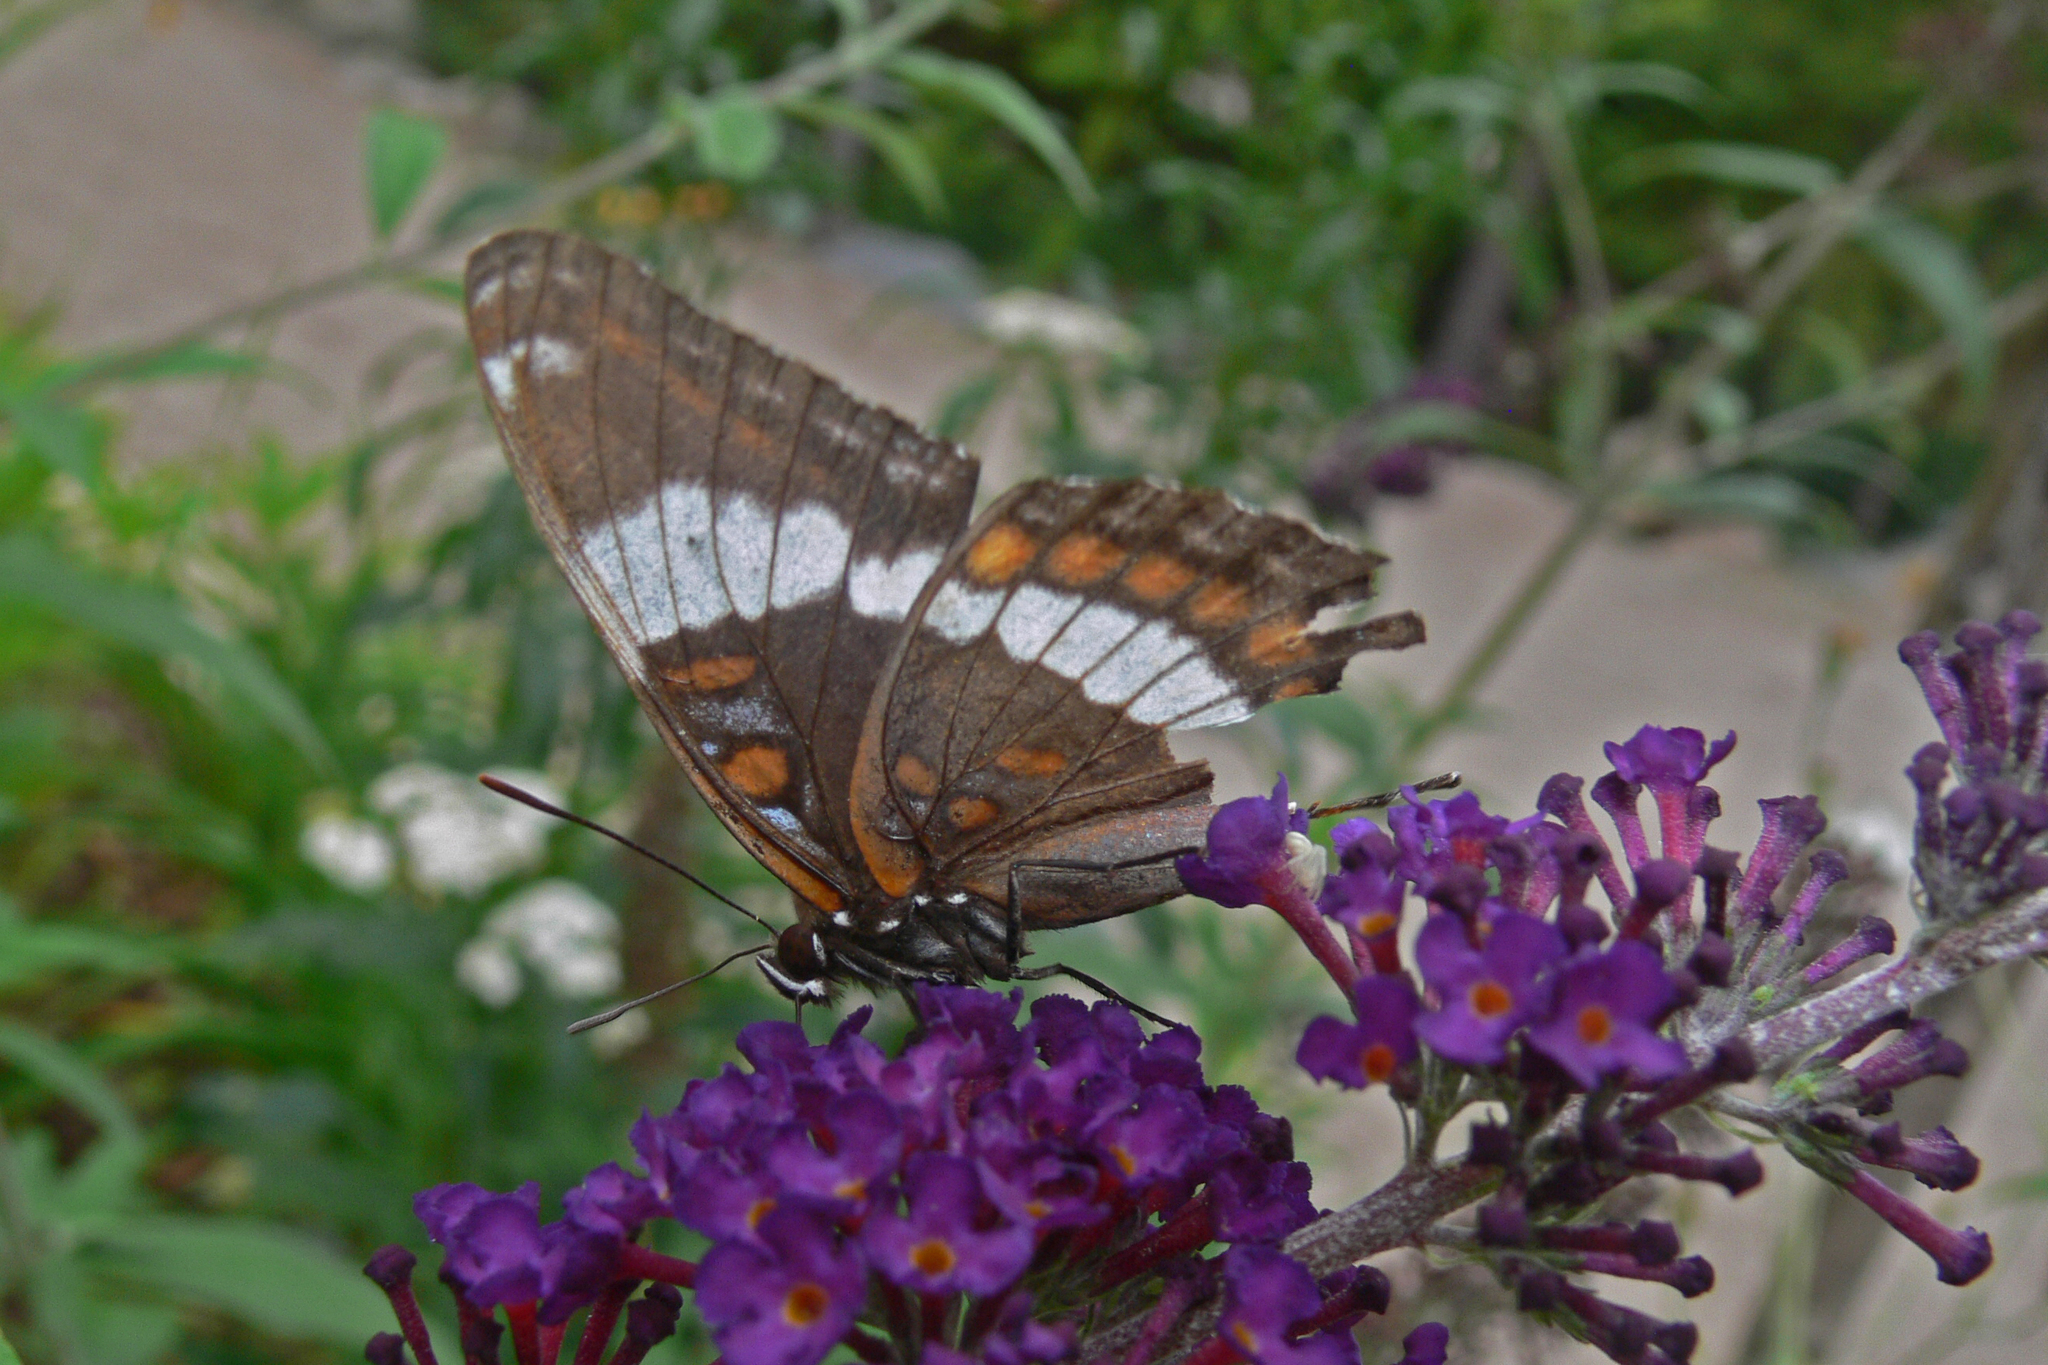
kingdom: Animalia
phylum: Arthropoda
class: Insecta
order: Lepidoptera
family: Nymphalidae
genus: Limenitis
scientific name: Limenitis arthemis
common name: Red-spotted admiral
